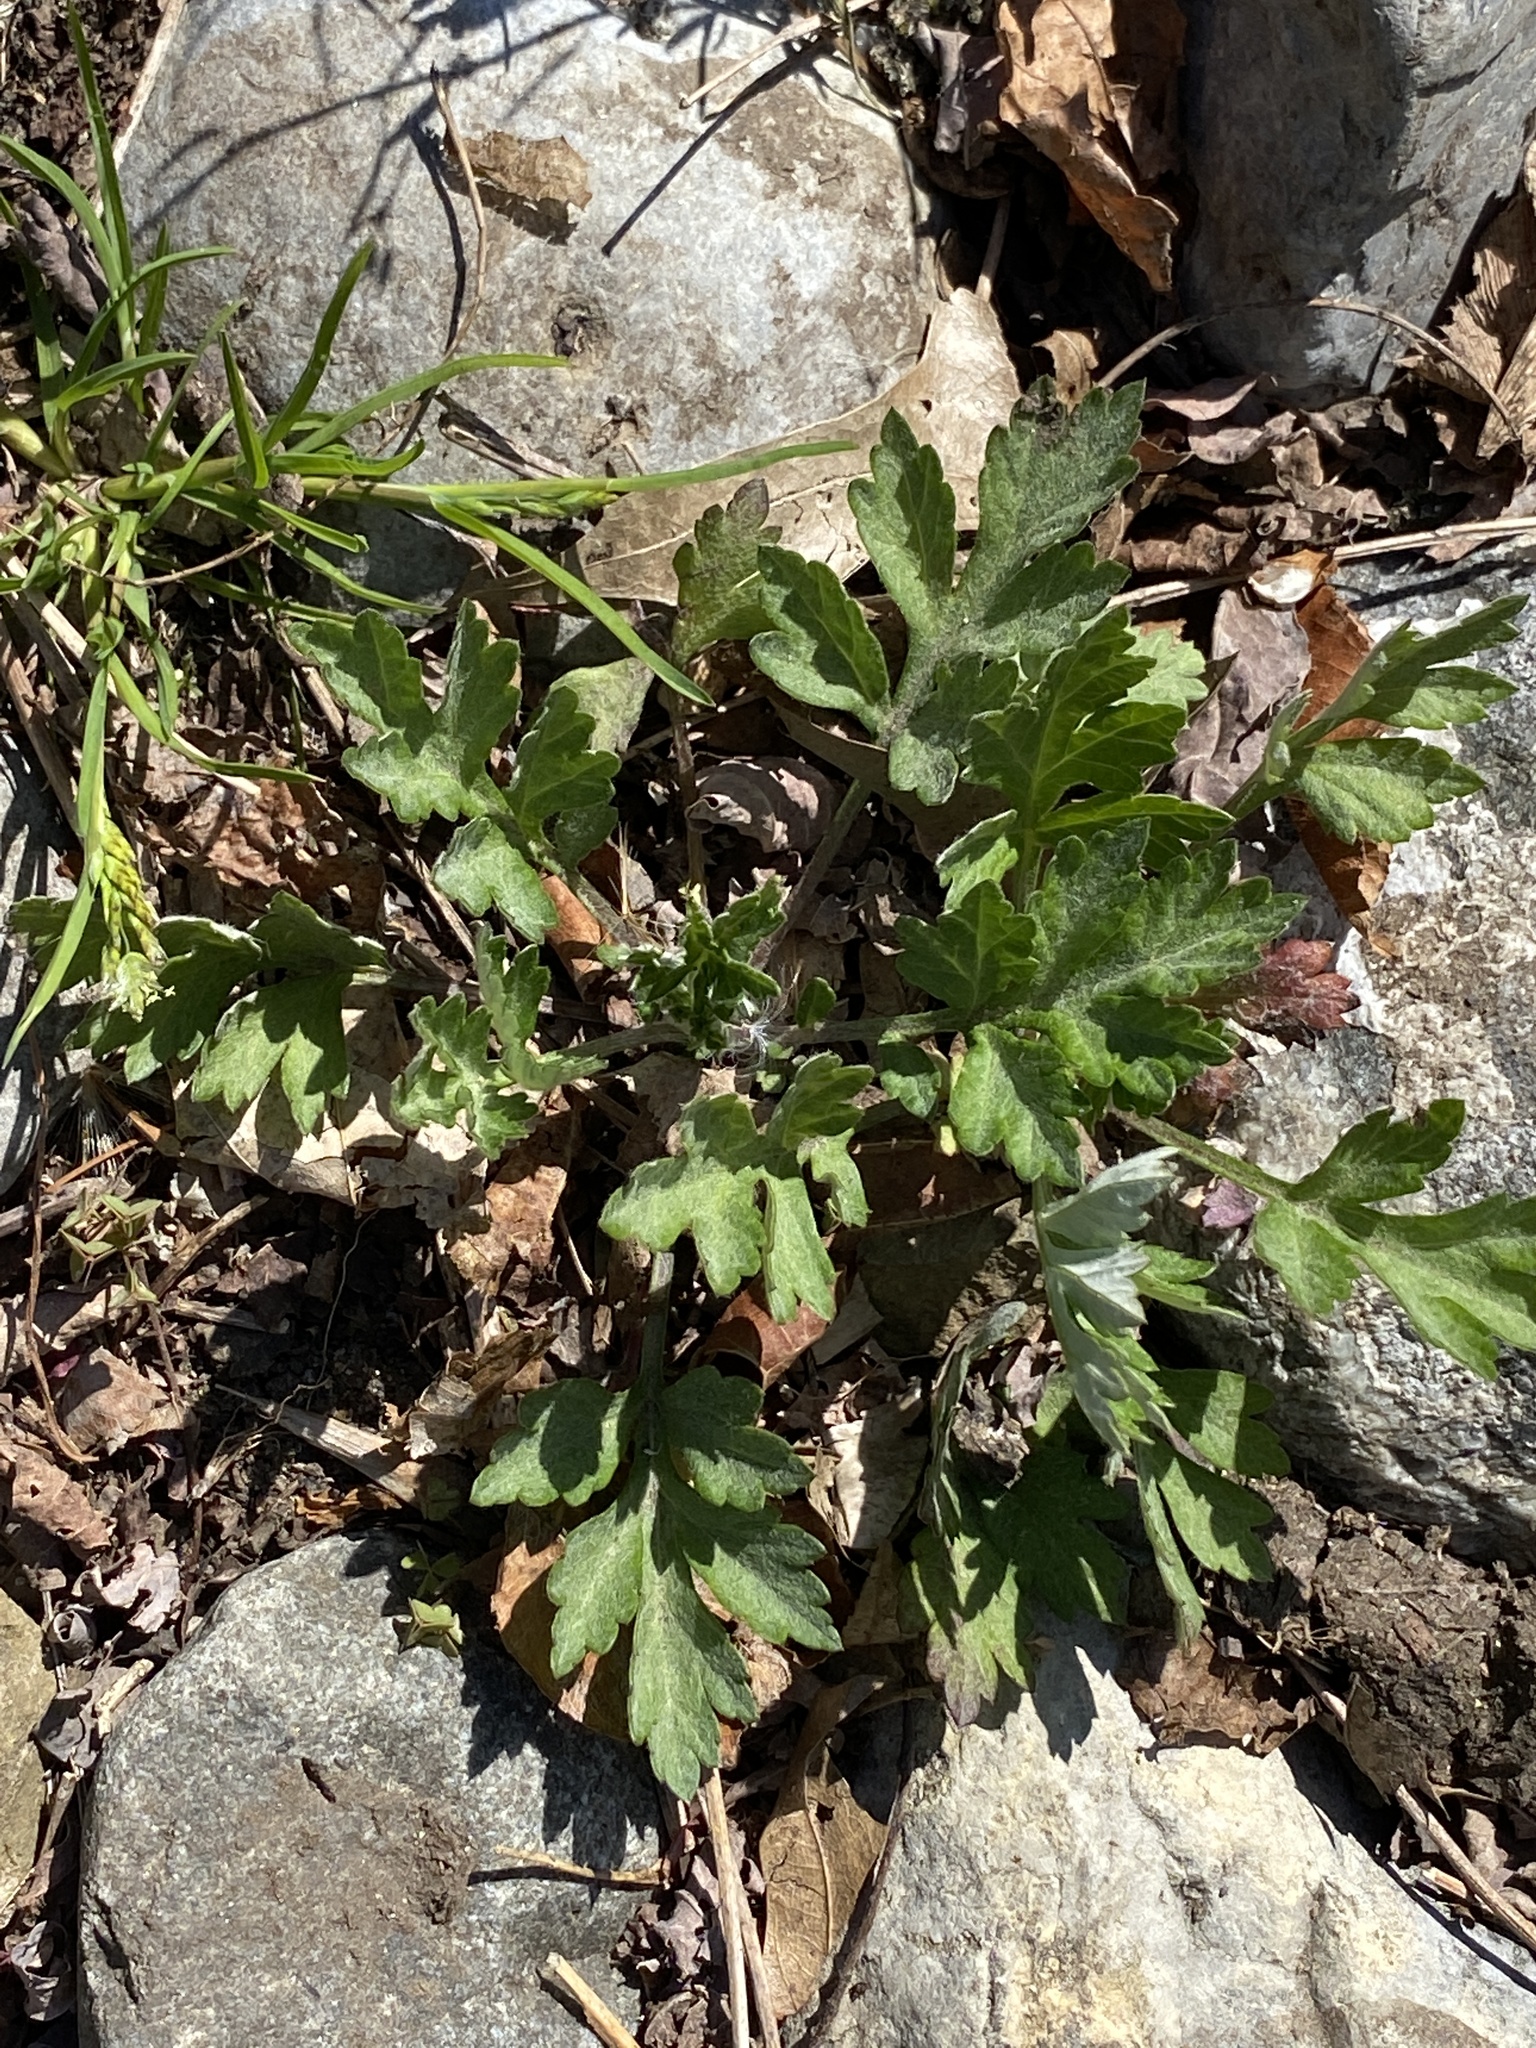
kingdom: Plantae
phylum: Tracheophyta
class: Magnoliopsida
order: Asterales
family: Asteraceae
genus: Artemisia
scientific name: Artemisia vulgaris
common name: Mugwort
